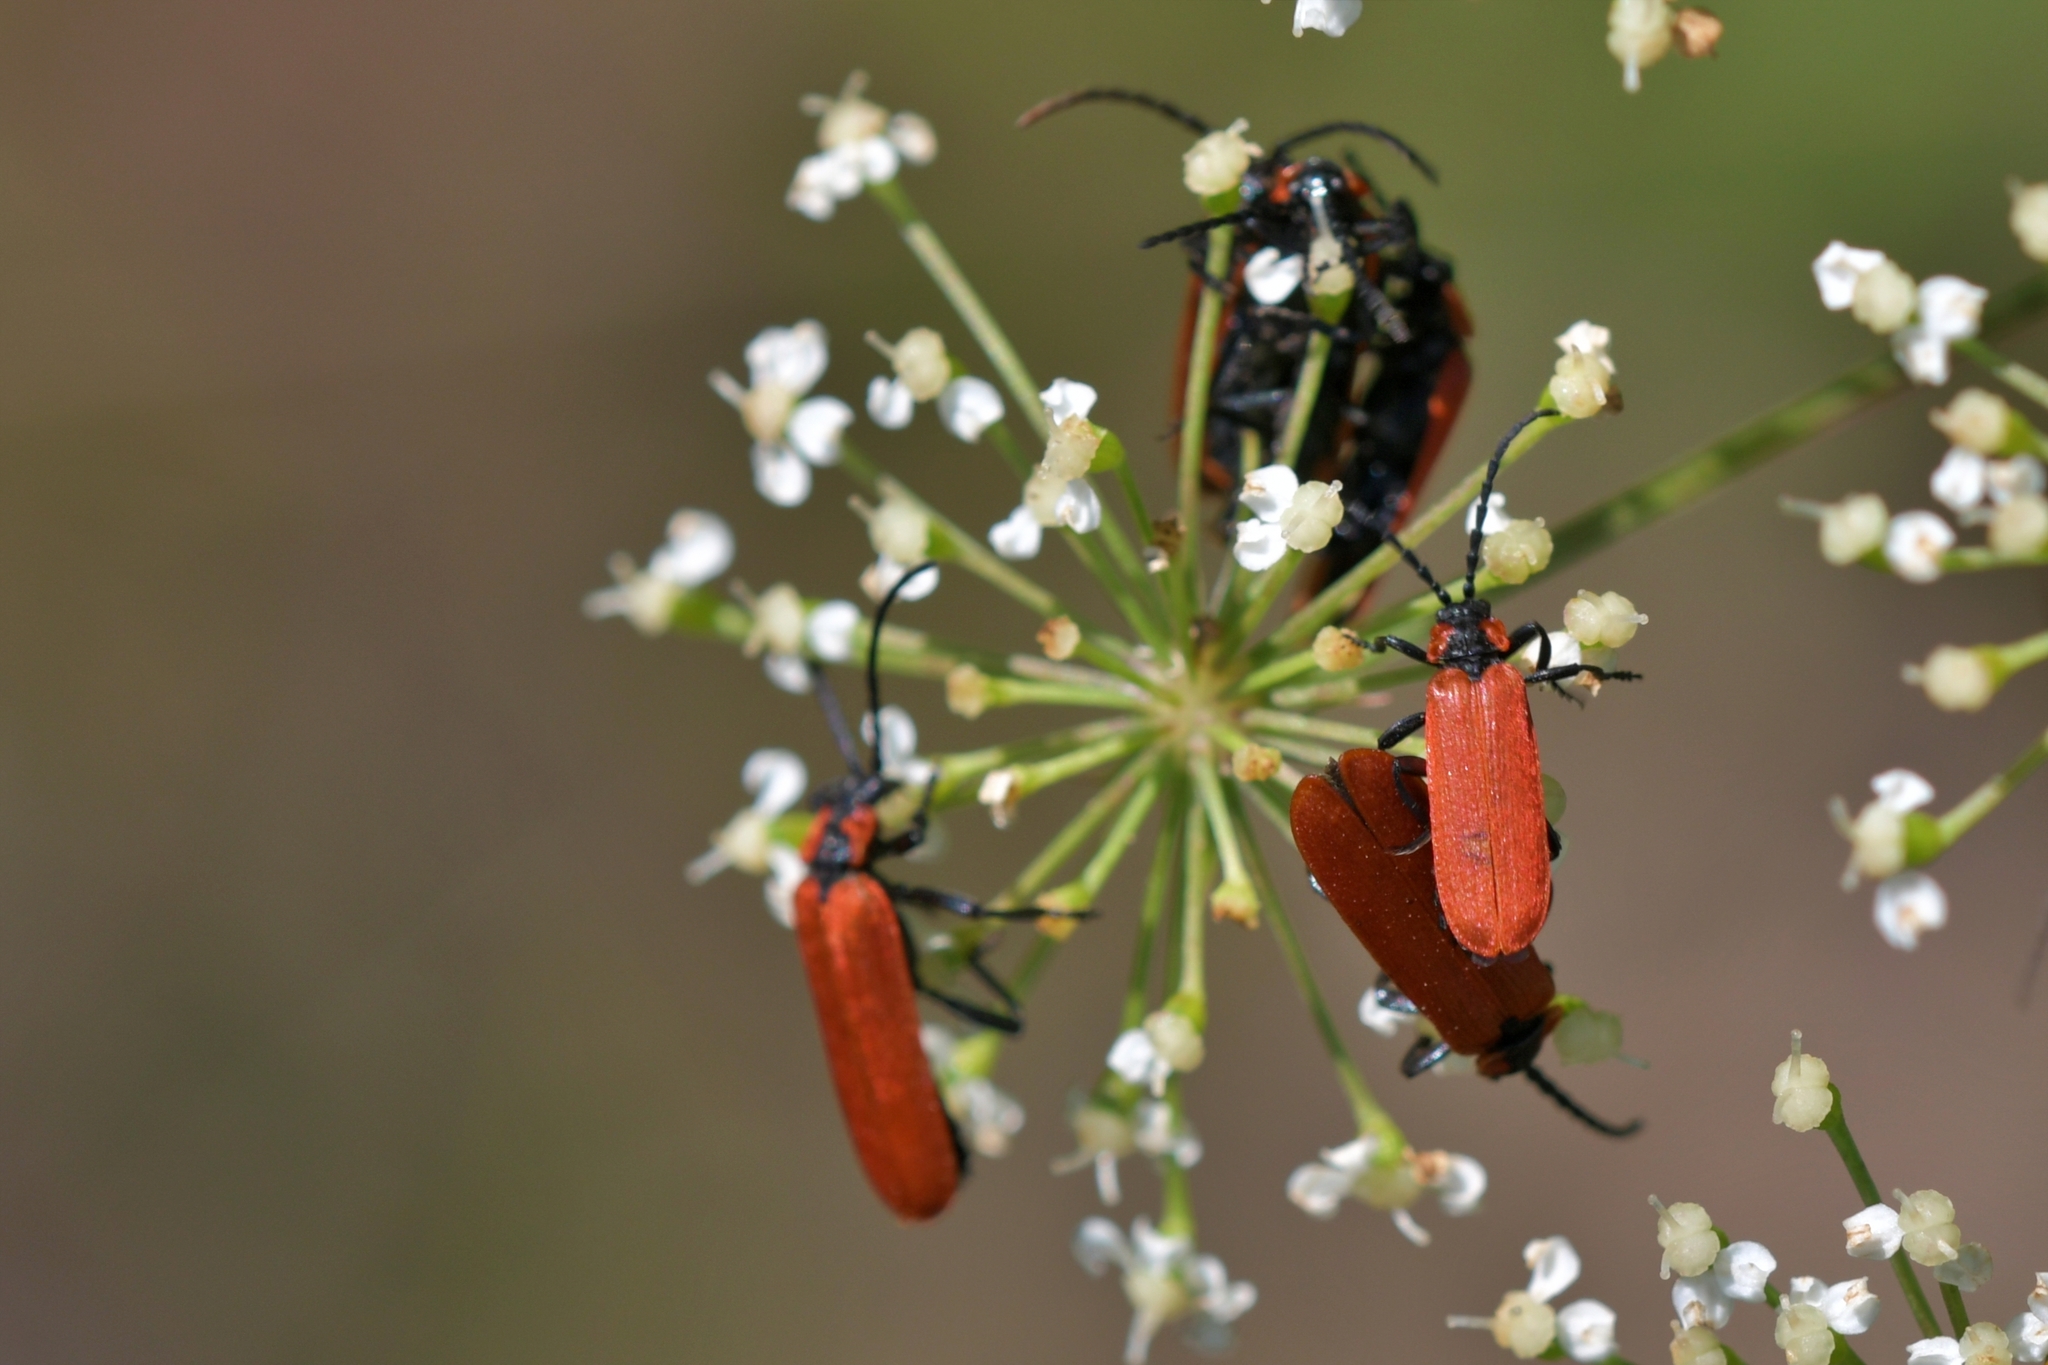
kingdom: Animalia
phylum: Arthropoda
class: Insecta
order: Coleoptera
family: Lycidae
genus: Lygistopterus
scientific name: Lygistopterus sanguineus
